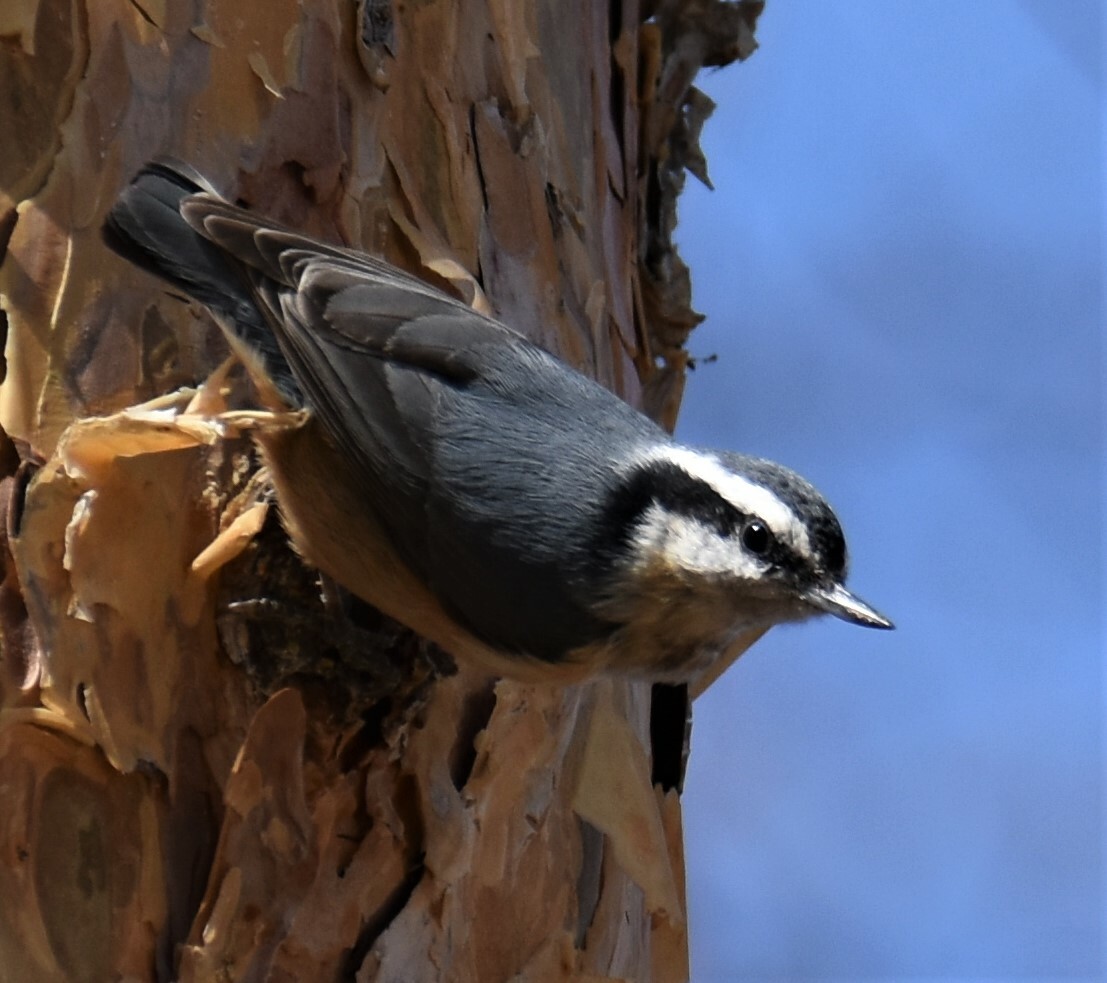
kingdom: Animalia
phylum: Chordata
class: Aves
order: Passeriformes
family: Sittidae
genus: Sitta
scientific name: Sitta canadensis
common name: Red-breasted nuthatch
